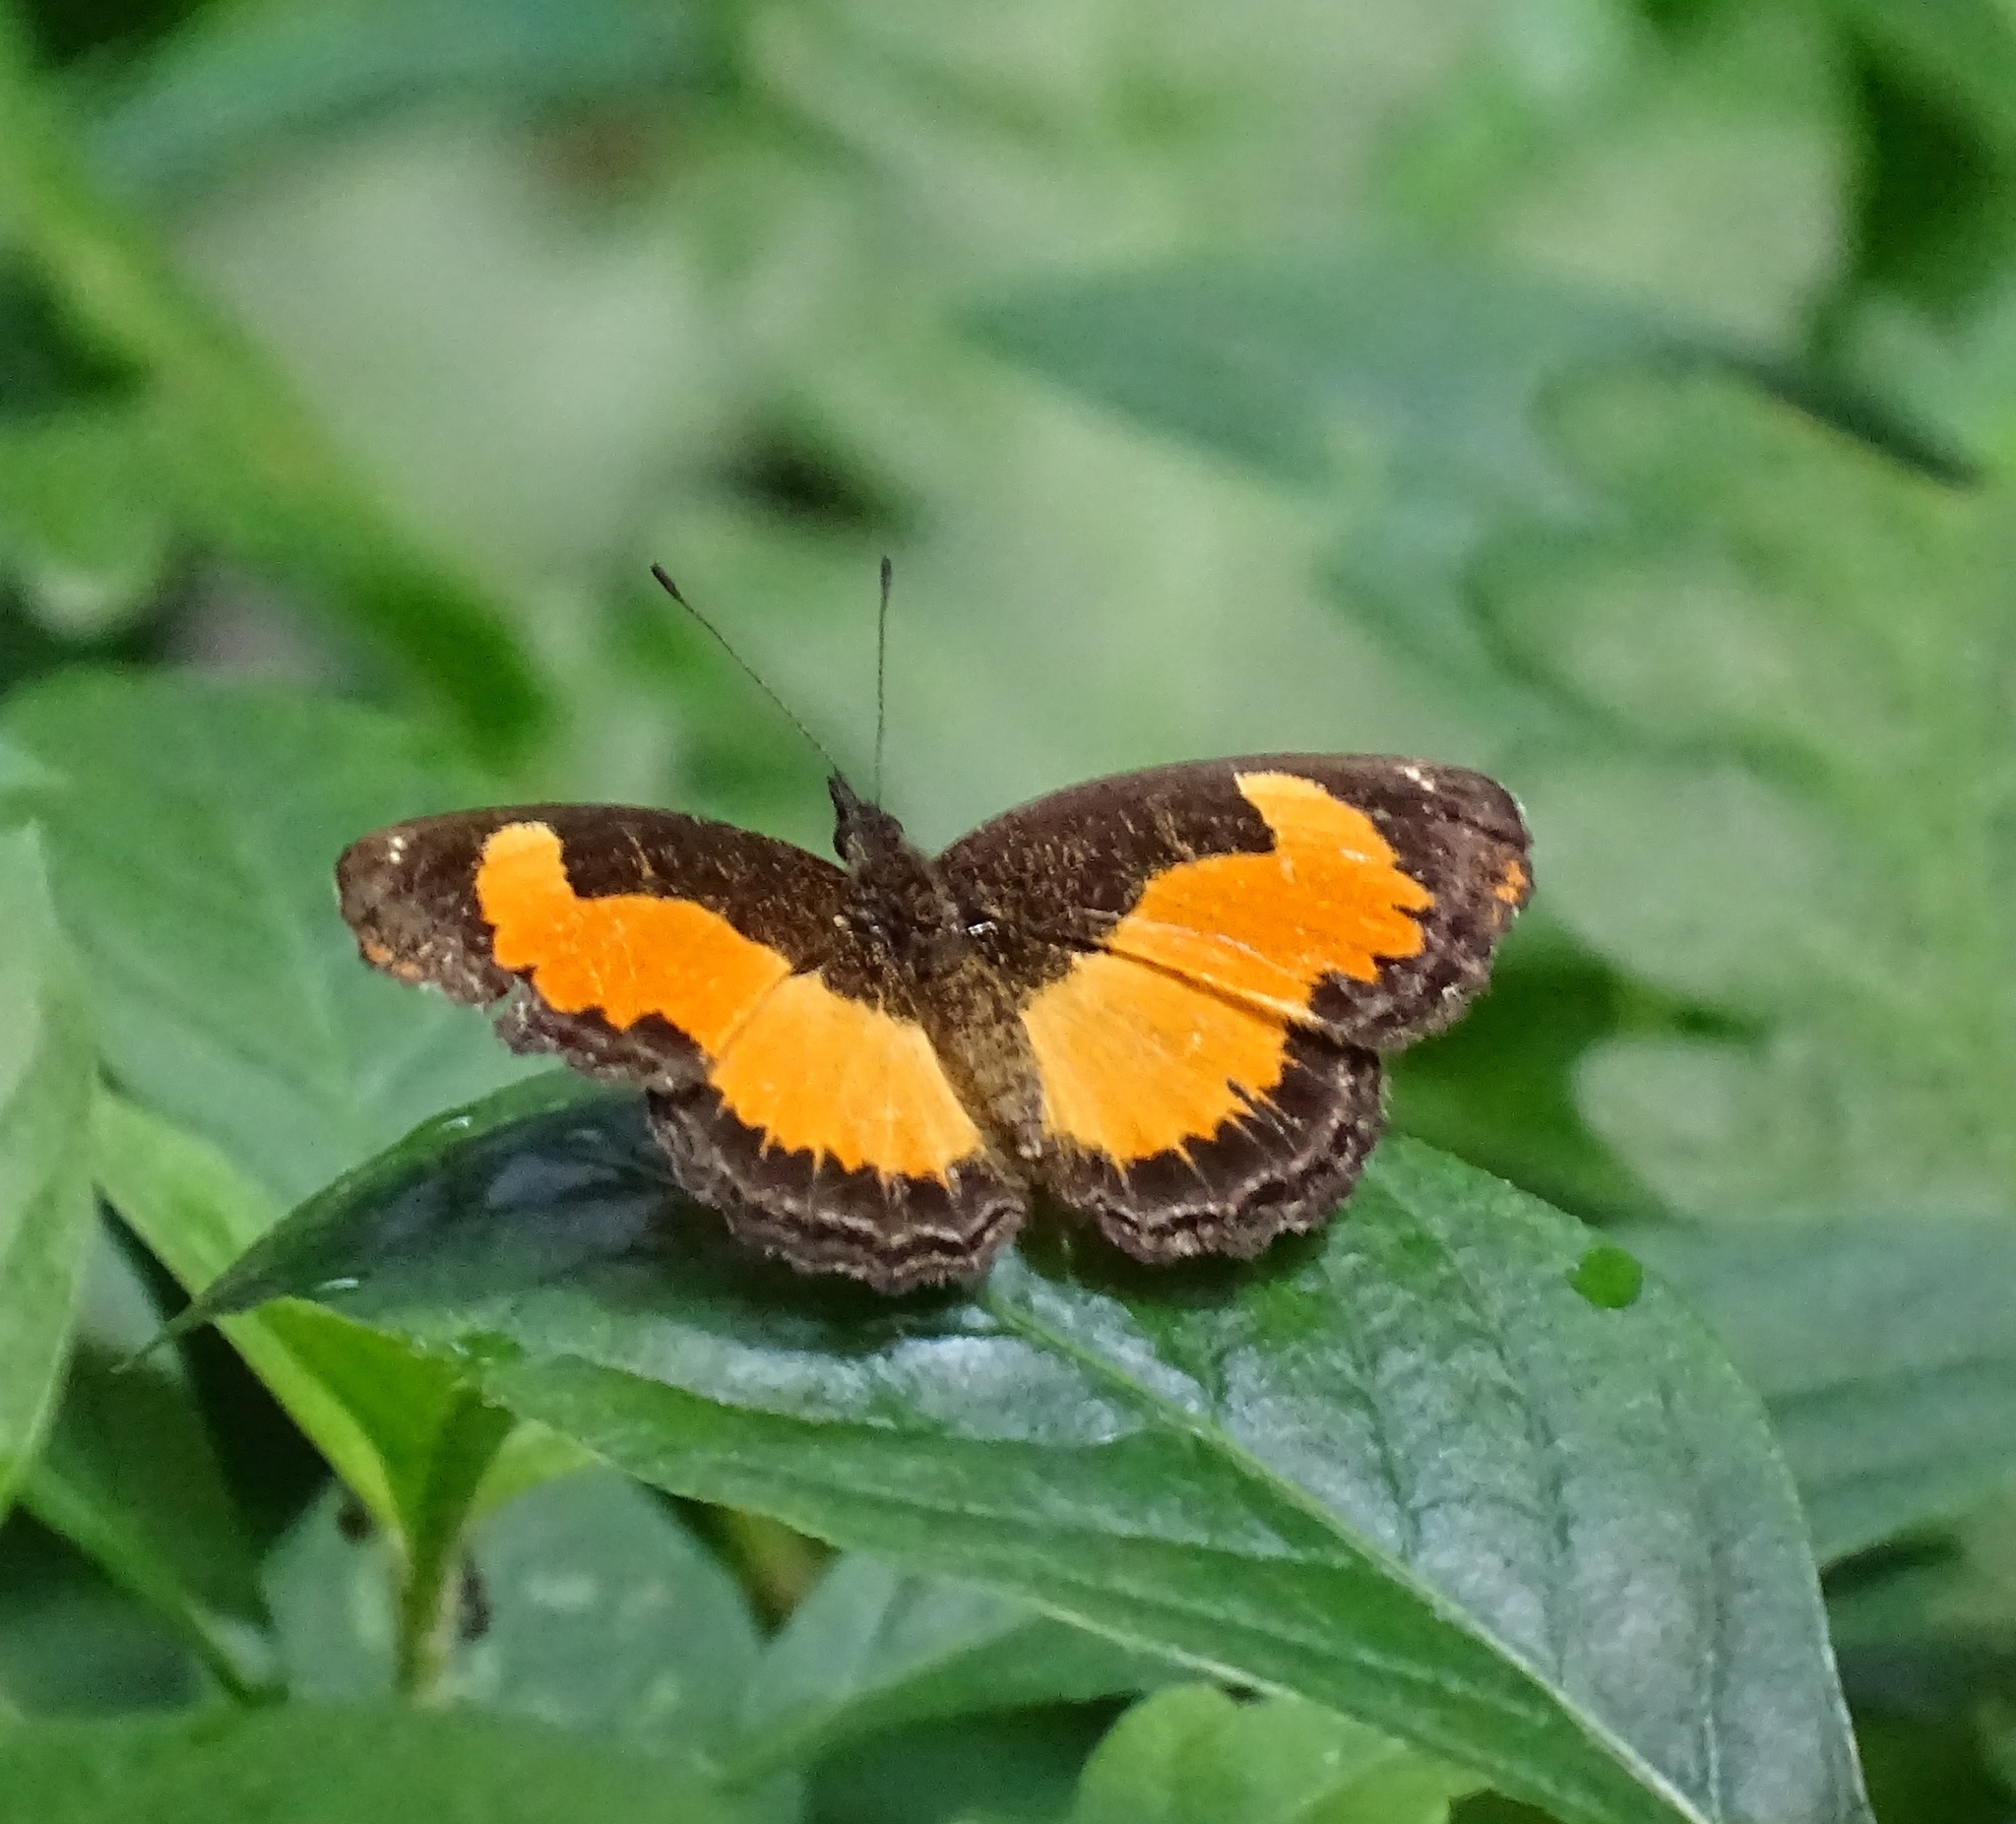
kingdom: Animalia
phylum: Arthropoda
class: Insecta
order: Lepidoptera
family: Nymphalidae
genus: Vanessula
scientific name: Vanessula milea
